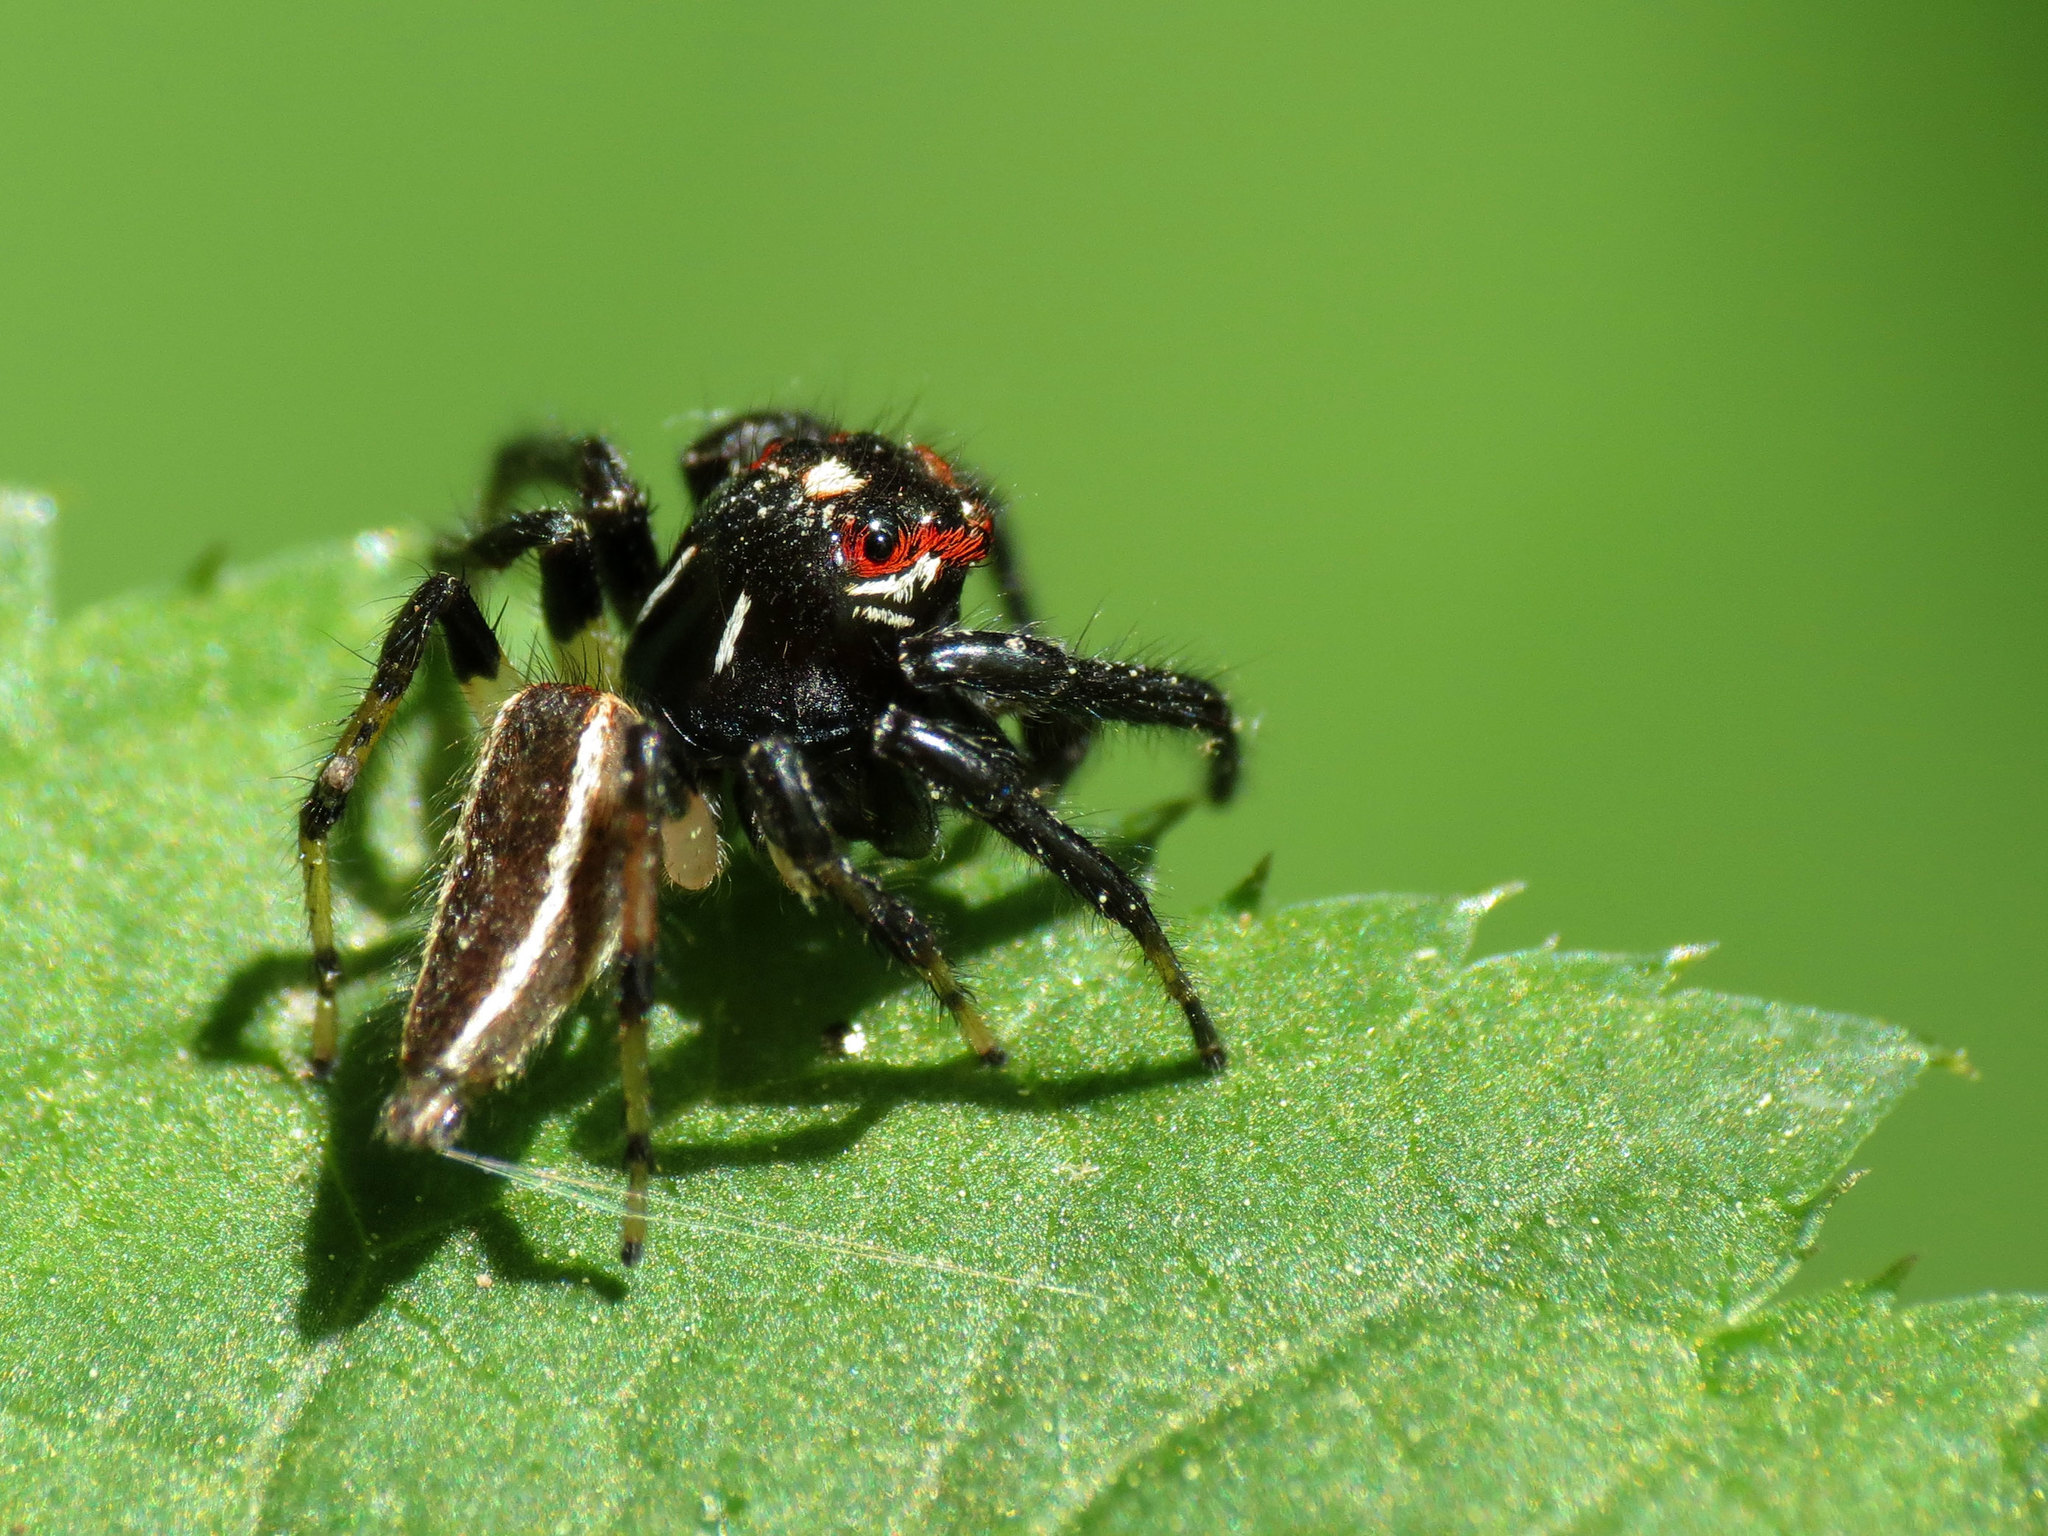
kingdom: Animalia
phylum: Arthropoda
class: Arachnida
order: Araneae
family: Salticidae
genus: Colonus
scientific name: Colonus sylvanus
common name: Jumping spiders
